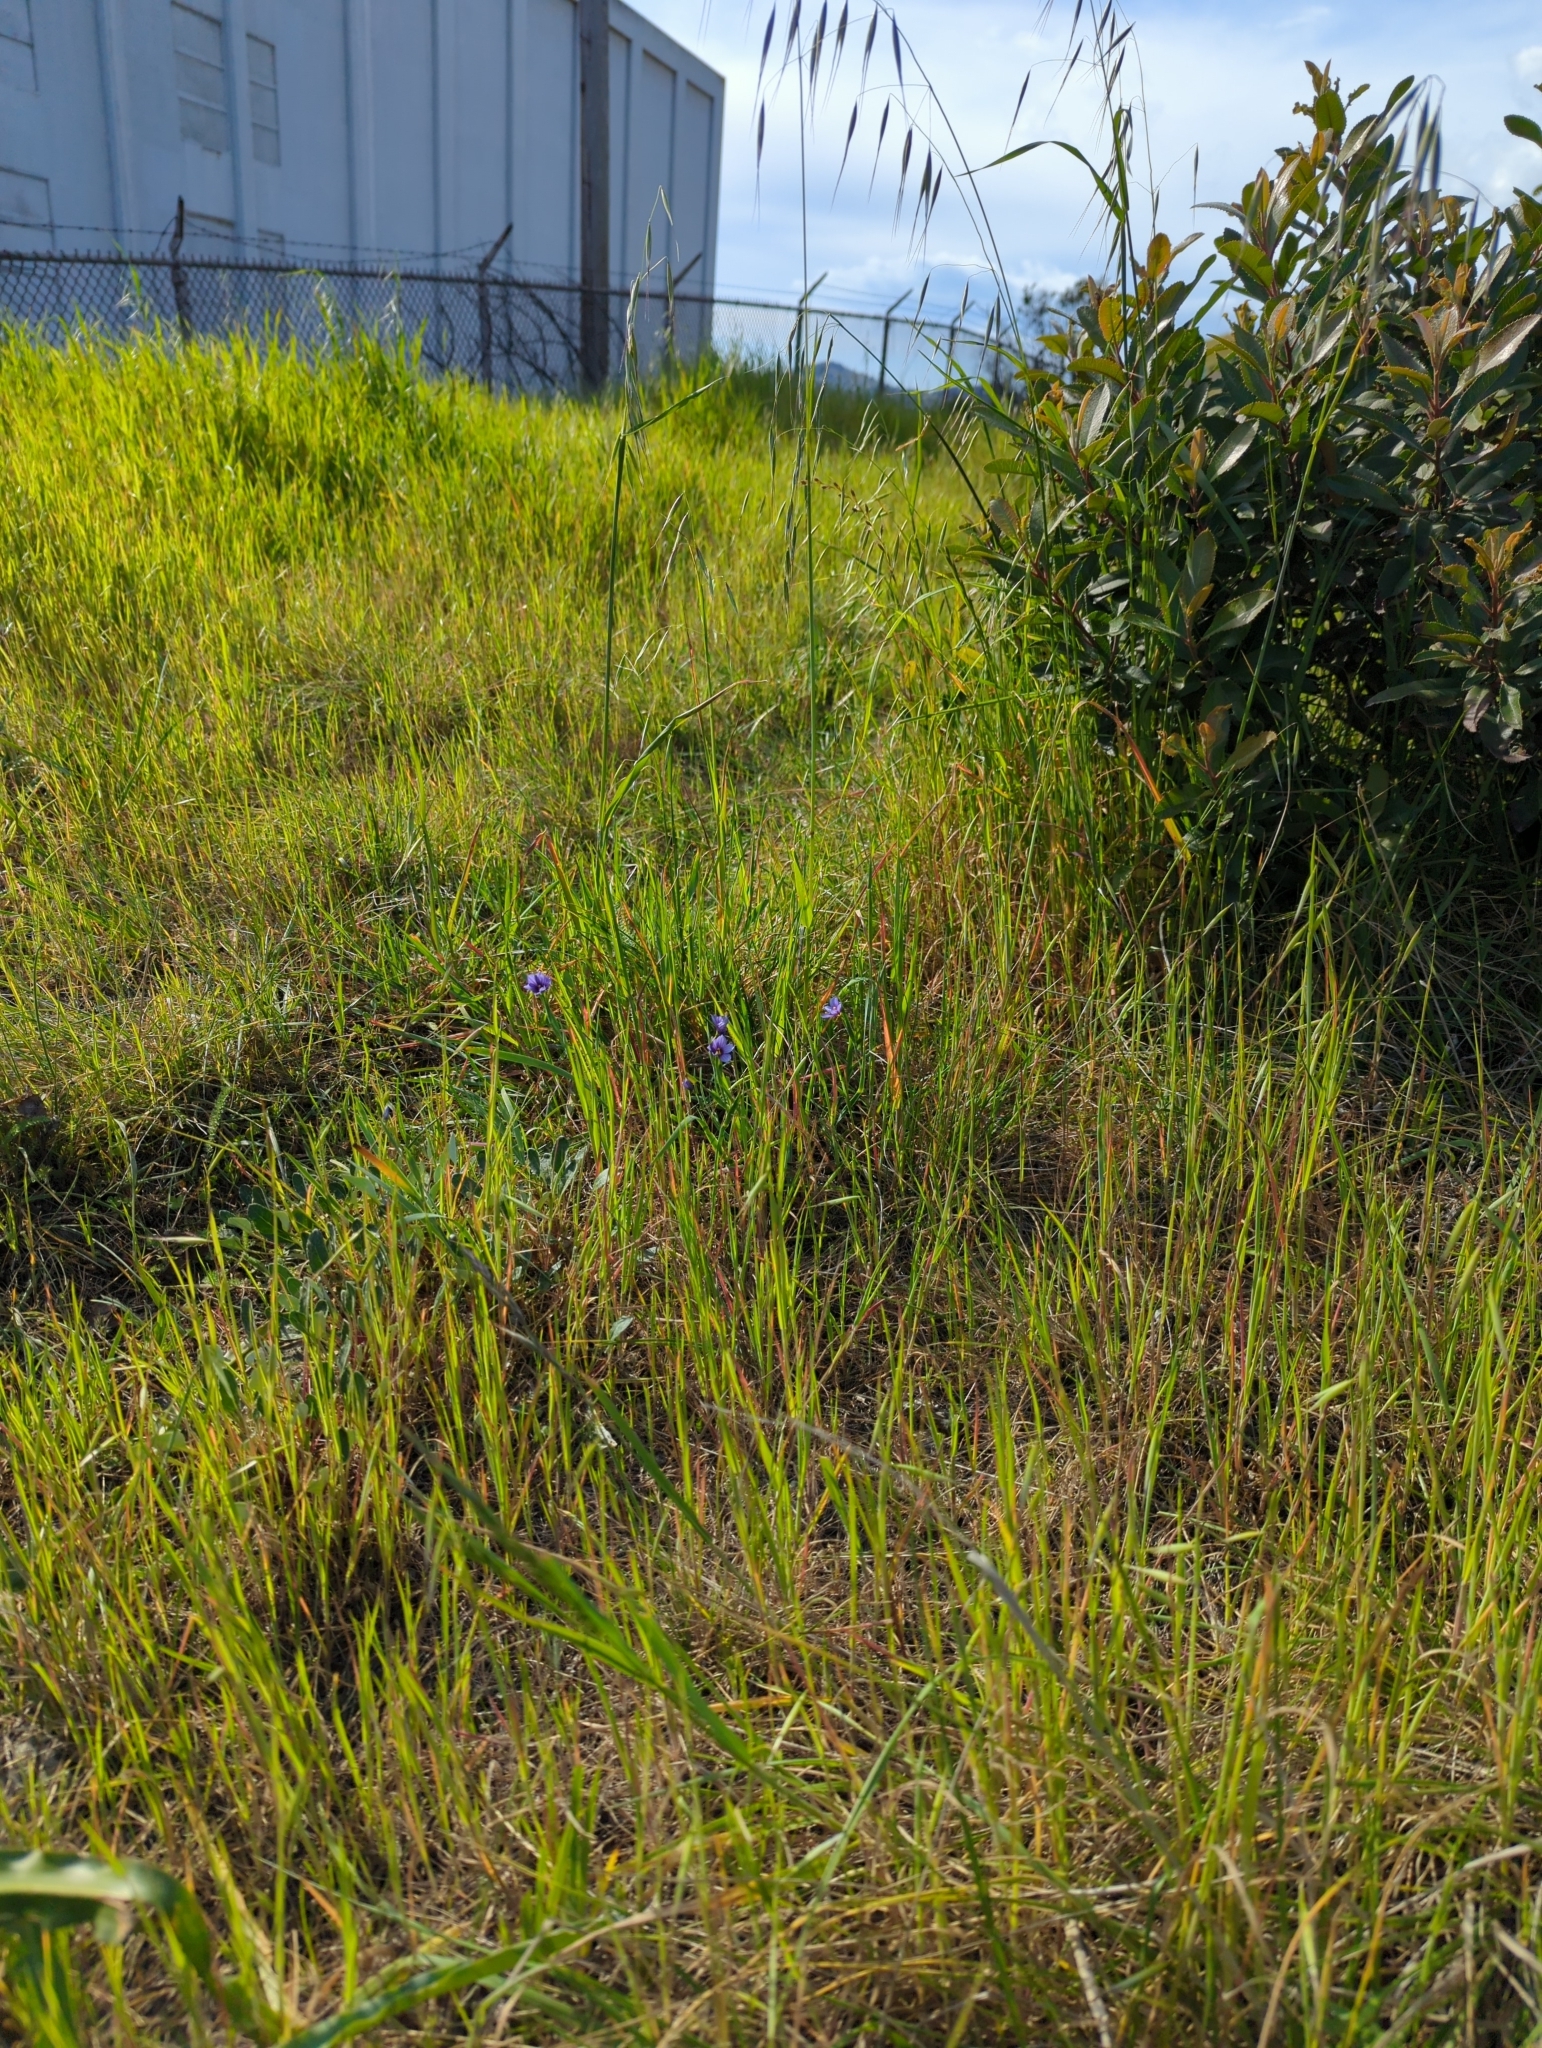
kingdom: Plantae
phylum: Tracheophyta
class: Liliopsida
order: Asparagales
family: Iridaceae
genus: Sisyrinchium
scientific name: Sisyrinchium bellum
